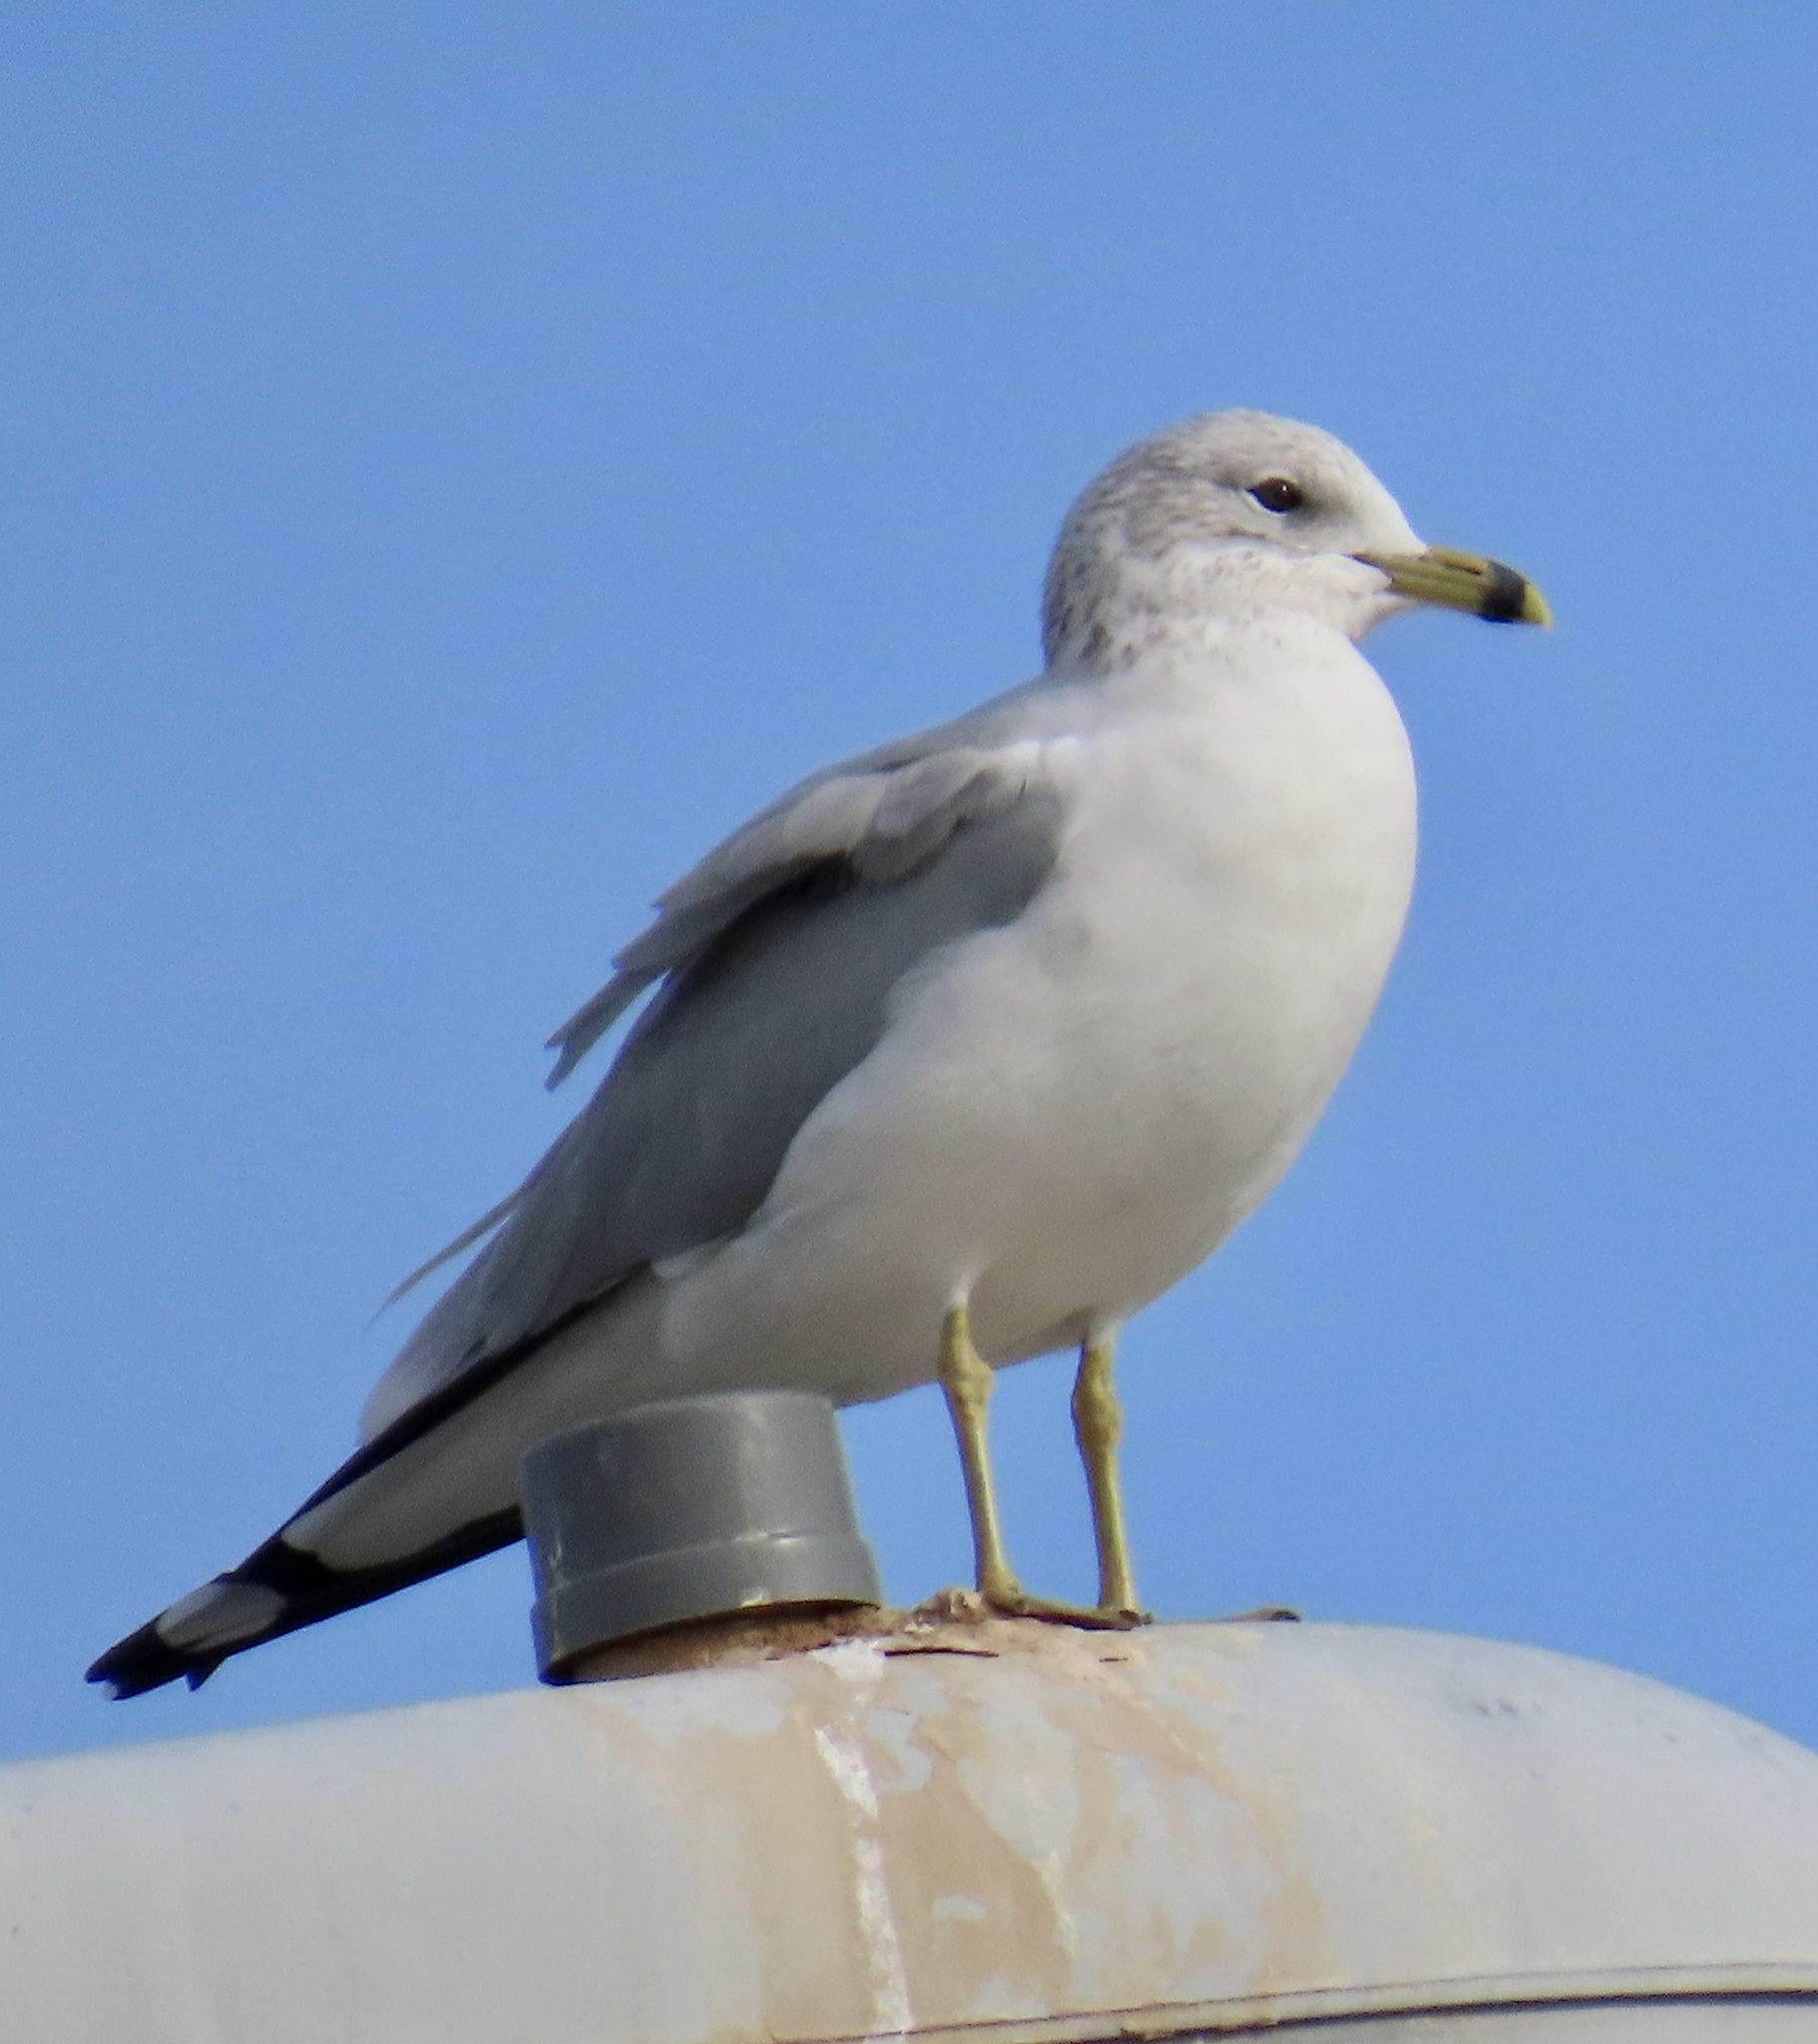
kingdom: Animalia
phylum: Chordata
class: Aves
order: Charadriiformes
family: Laridae
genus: Larus
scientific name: Larus delawarensis
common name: Ring-billed gull
